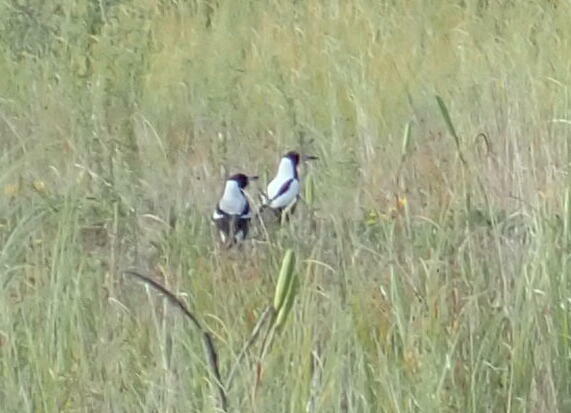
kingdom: Animalia
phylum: Chordata
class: Aves
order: Passeriformes
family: Cracticidae
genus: Gymnorhina
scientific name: Gymnorhina tibicen
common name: Australian magpie
